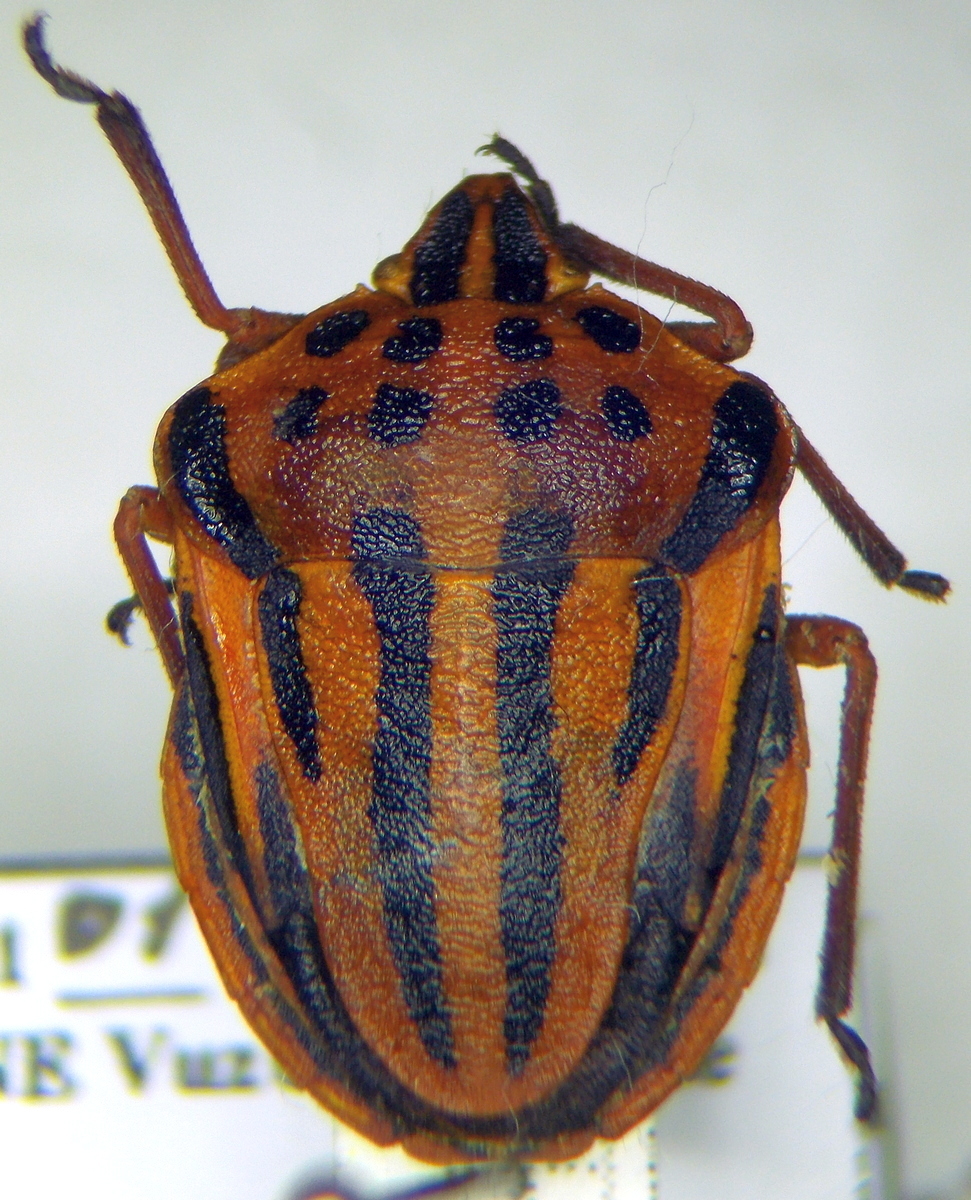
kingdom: Animalia
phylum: Arthropoda
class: Insecta
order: Hemiptera
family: Pentatomidae
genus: Graphosoma
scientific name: Graphosoma semipunctatum
